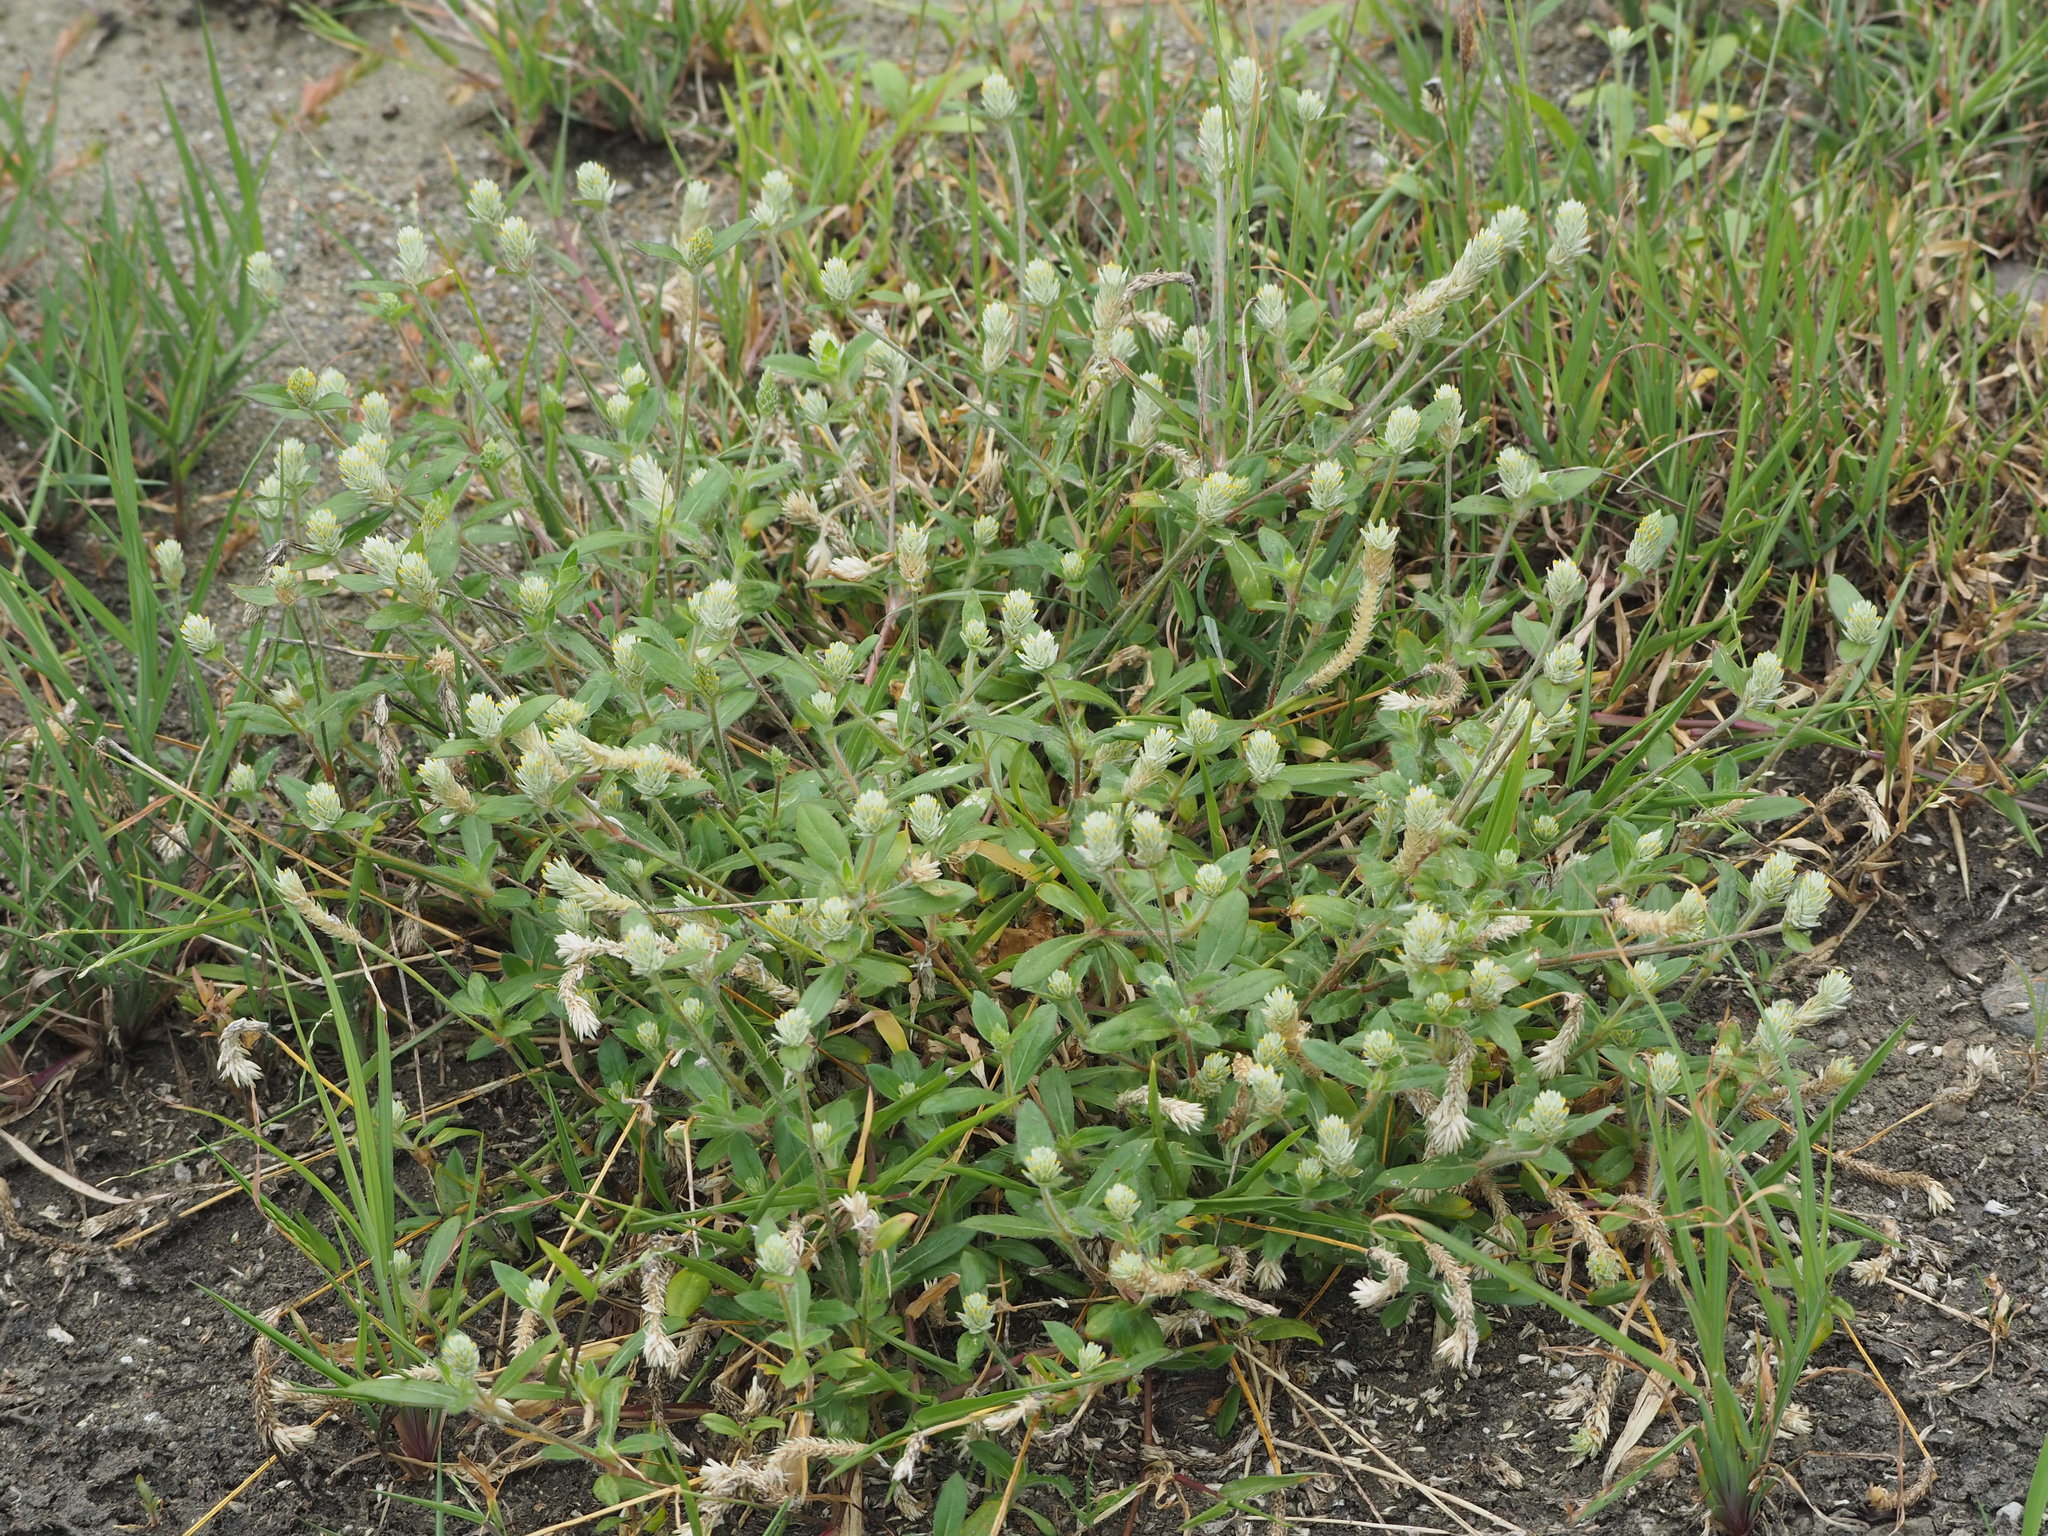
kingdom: Plantae
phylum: Tracheophyta
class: Magnoliopsida
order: Caryophyllales
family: Amaranthaceae
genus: Gomphrena
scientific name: Gomphrena serrata
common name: Arrasa con todo
